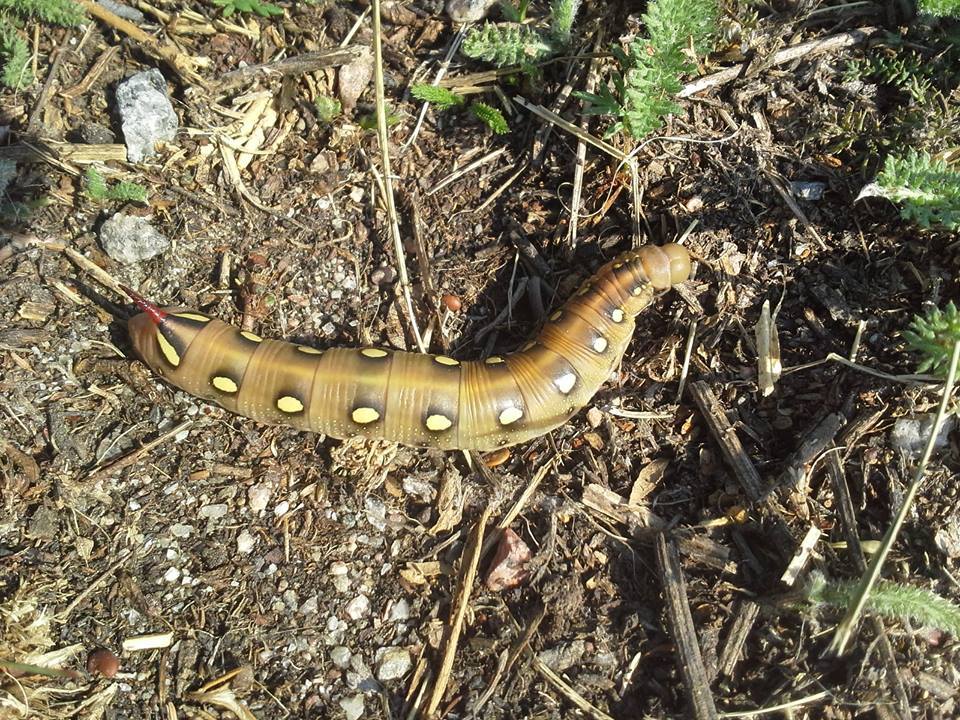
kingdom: Animalia
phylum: Arthropoda
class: Insecta
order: Lepidoptera
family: Sphingidae
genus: Hyles
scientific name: Hyles gallii
